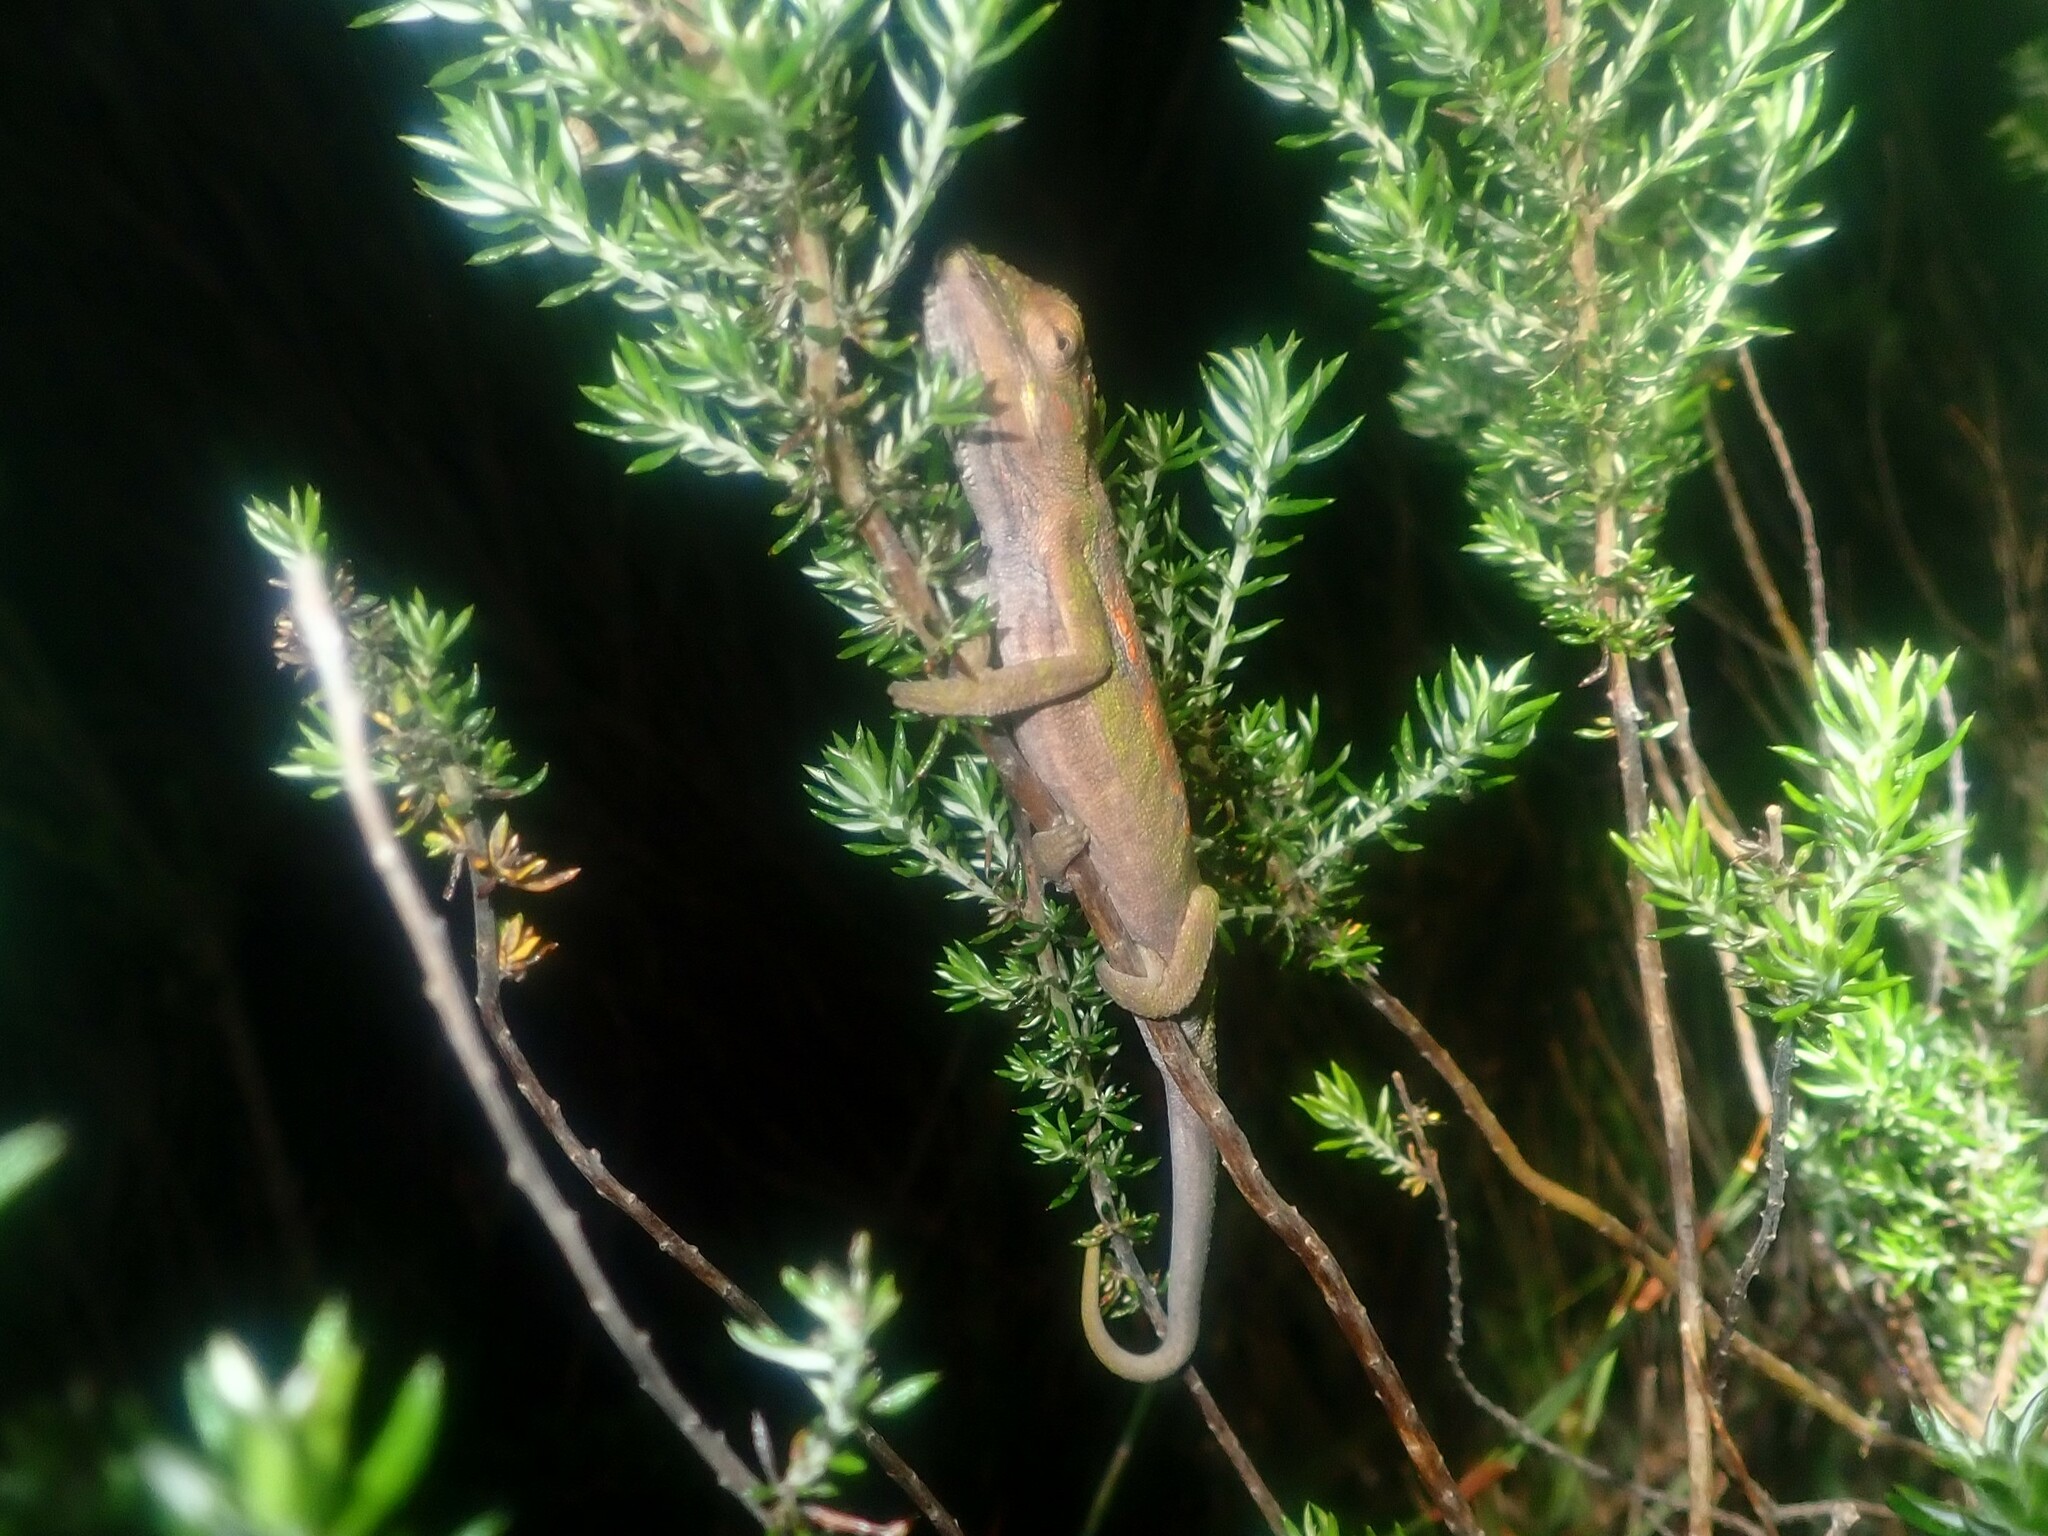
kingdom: Animalia
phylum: Chordata
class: Squamata
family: Chamaeleonidae
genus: Bradypodion
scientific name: Bradypodion pumilum
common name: Cape dwarf chameleon
